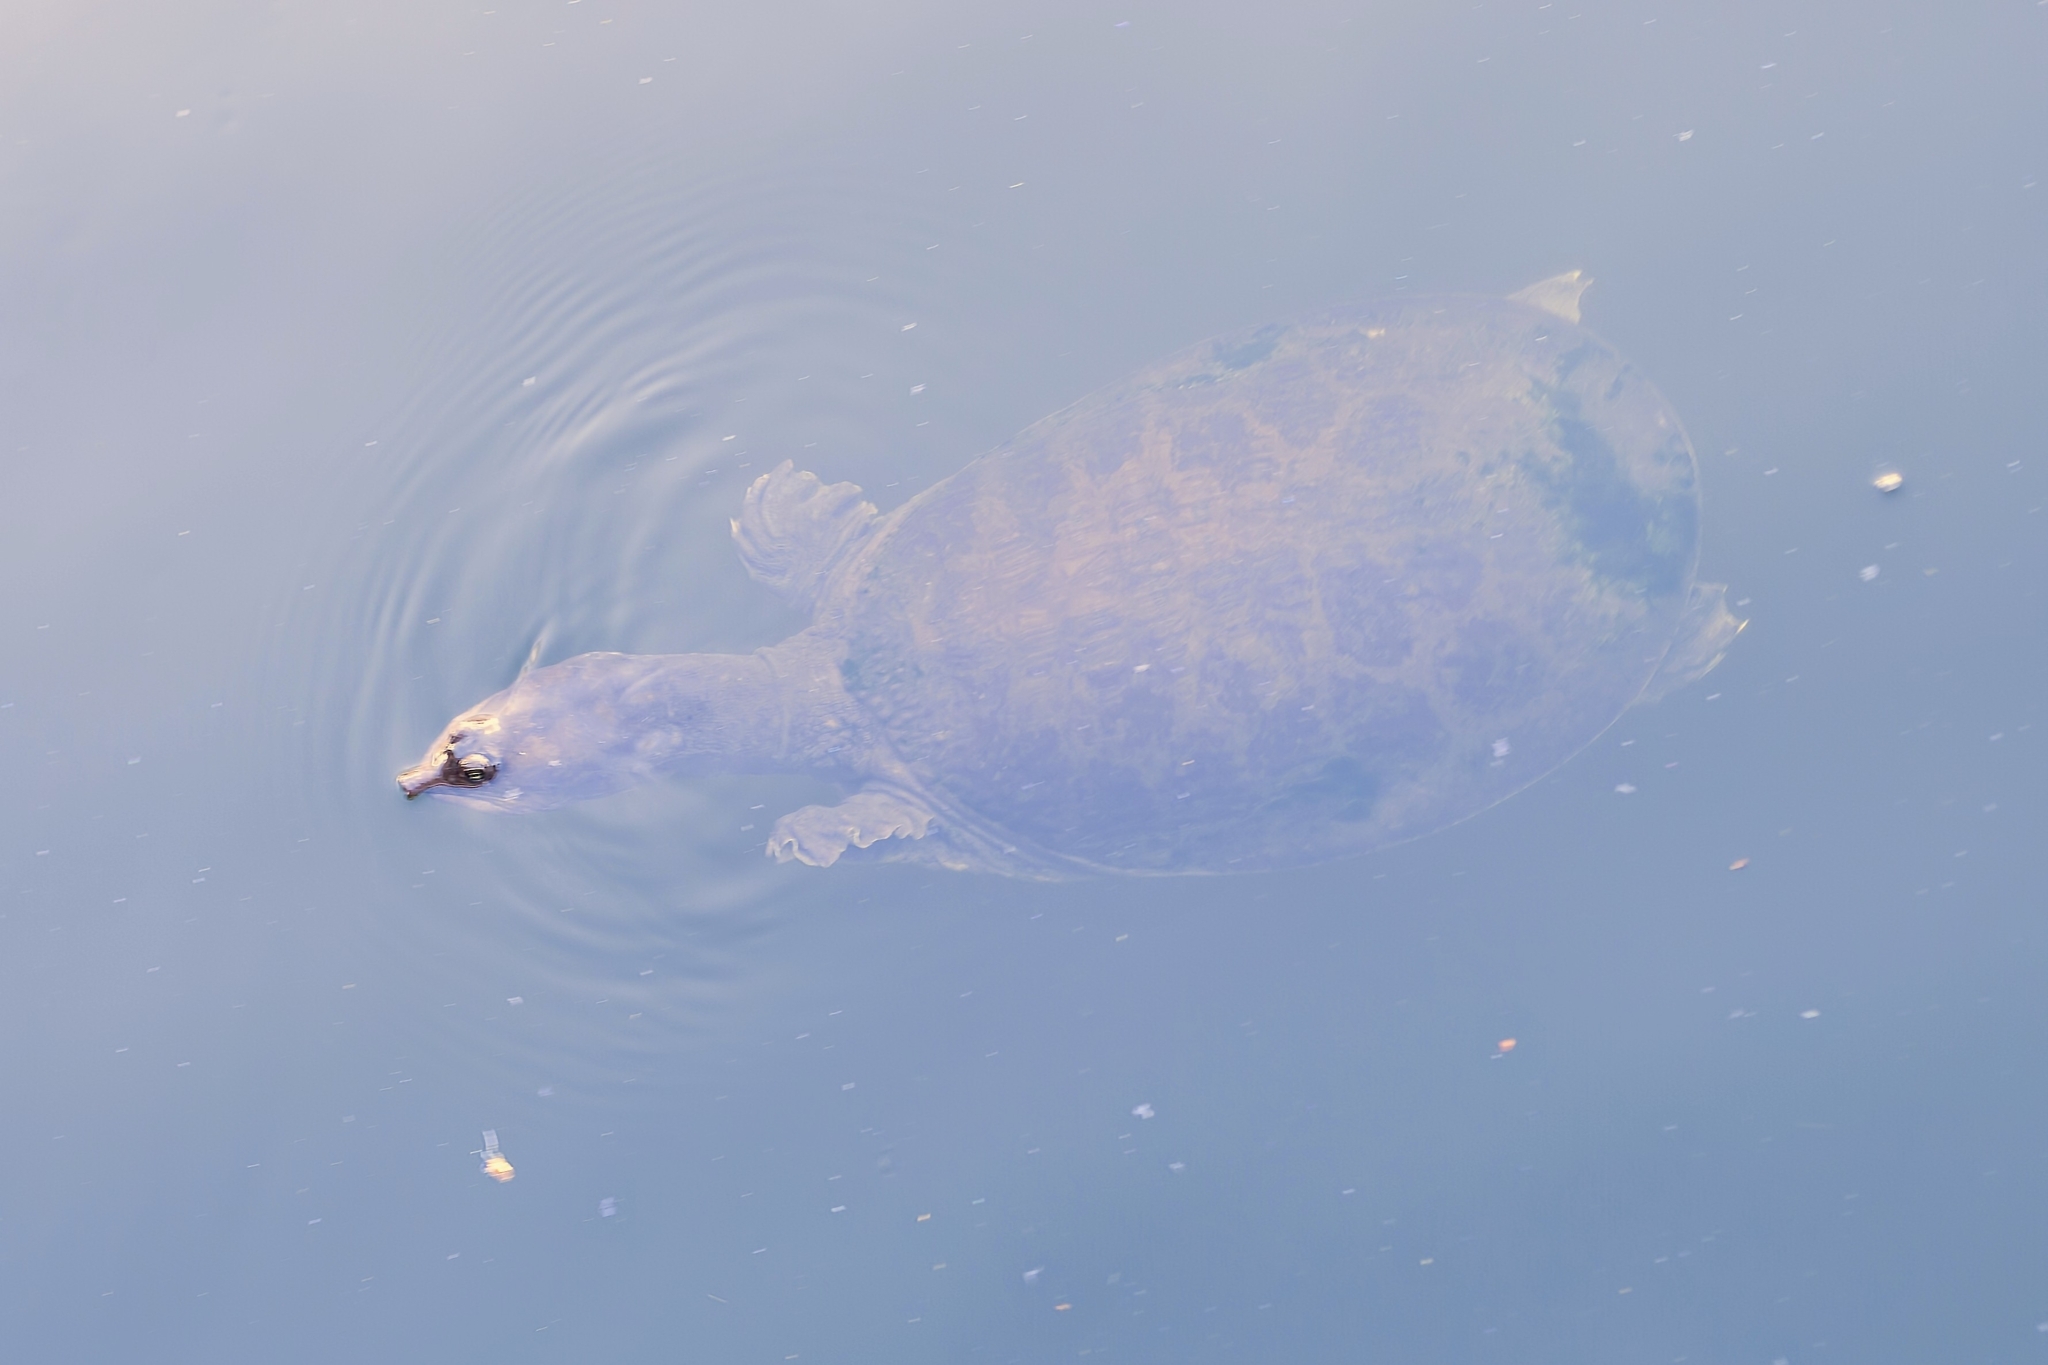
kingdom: Animalia
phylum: Chordata
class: Testudines
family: Trionychidae
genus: Apalone
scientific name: Apalone ferox
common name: Florida softshell turtle
